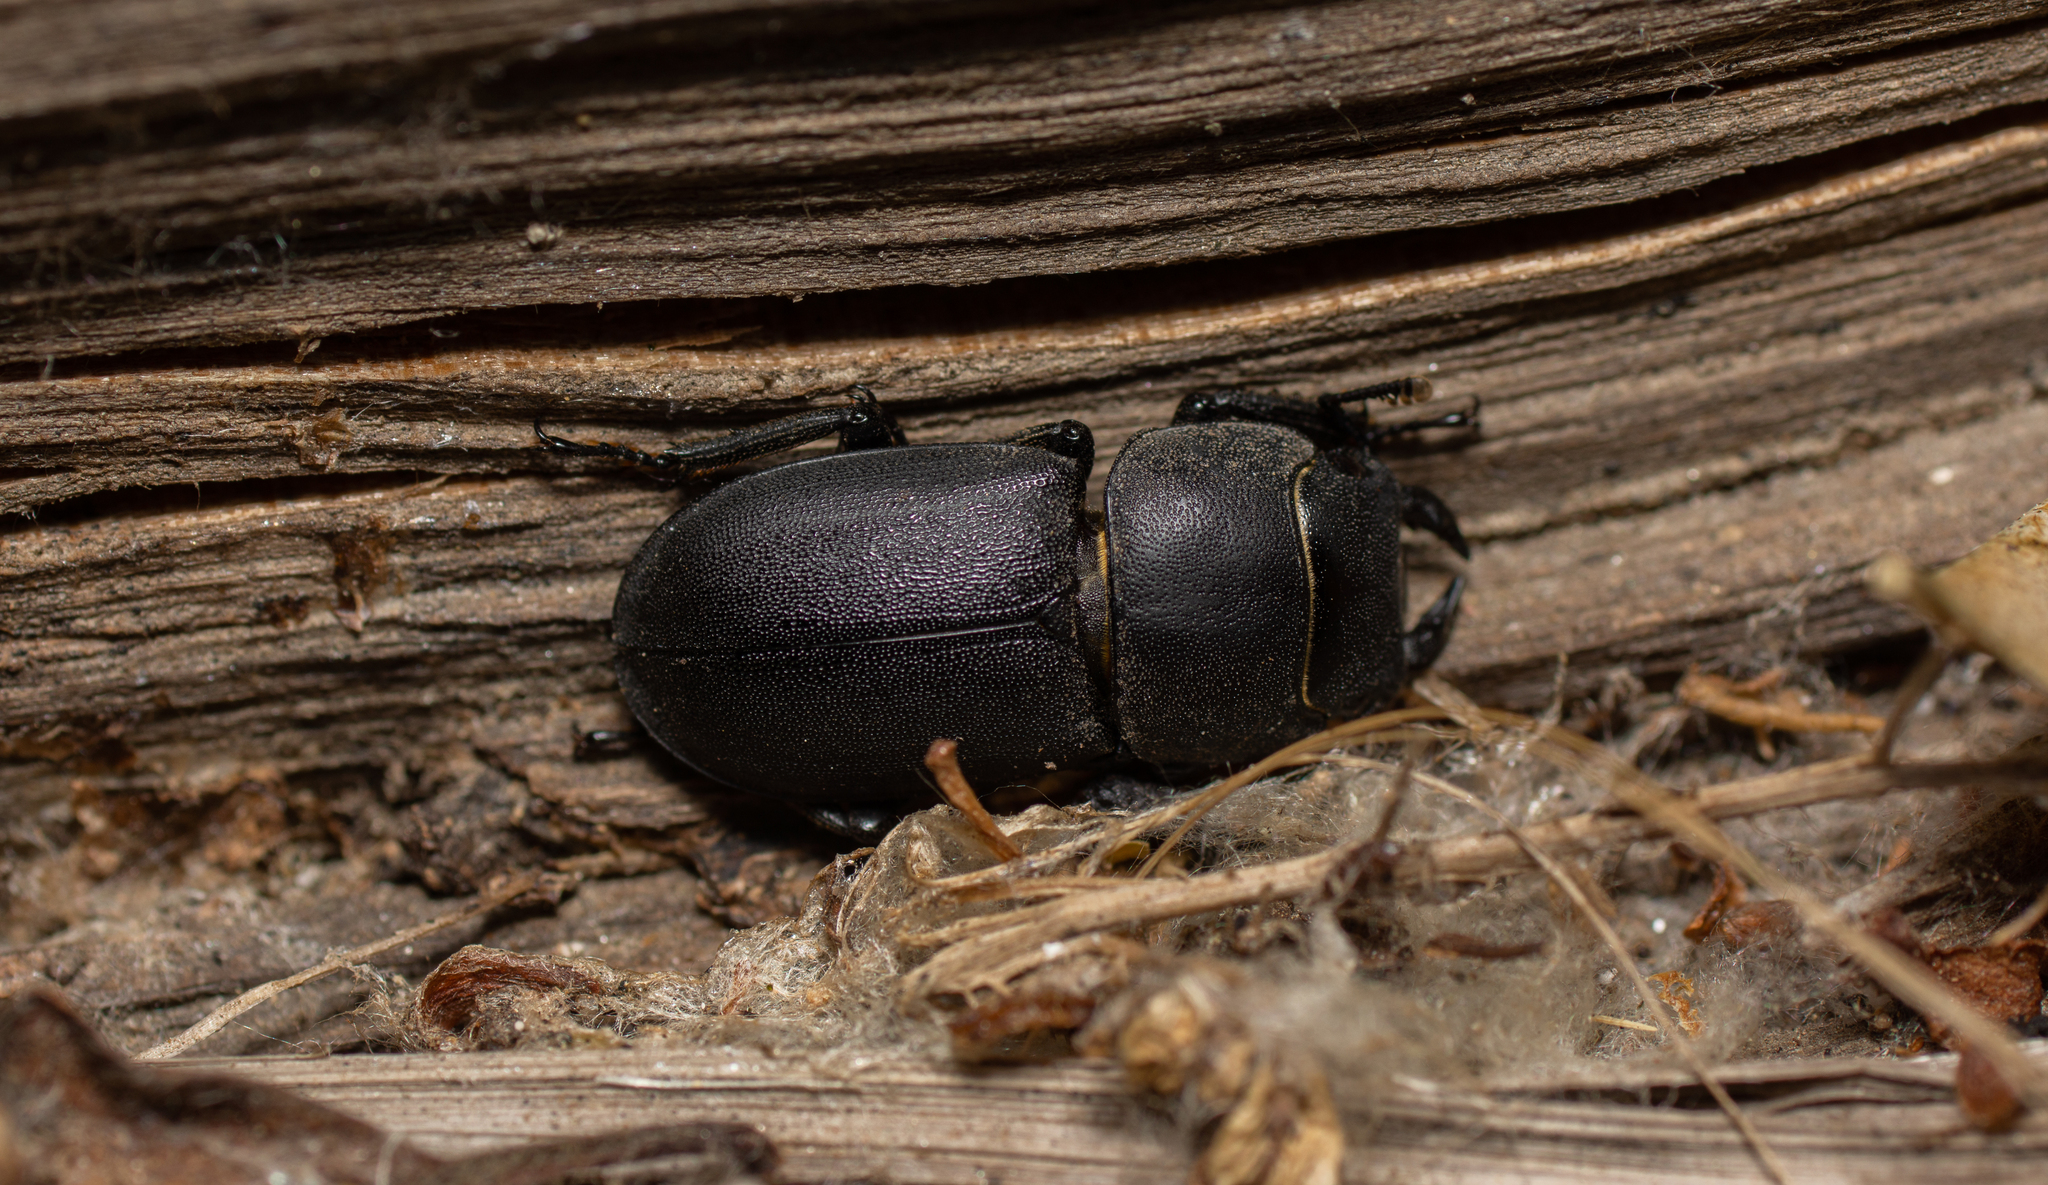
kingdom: Animalia
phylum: Arthropoda
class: Insecta
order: Coleoptera
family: Lucanidae
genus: Dorcus
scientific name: Dorcus parallelipipedus
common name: Lesser stag beetle
